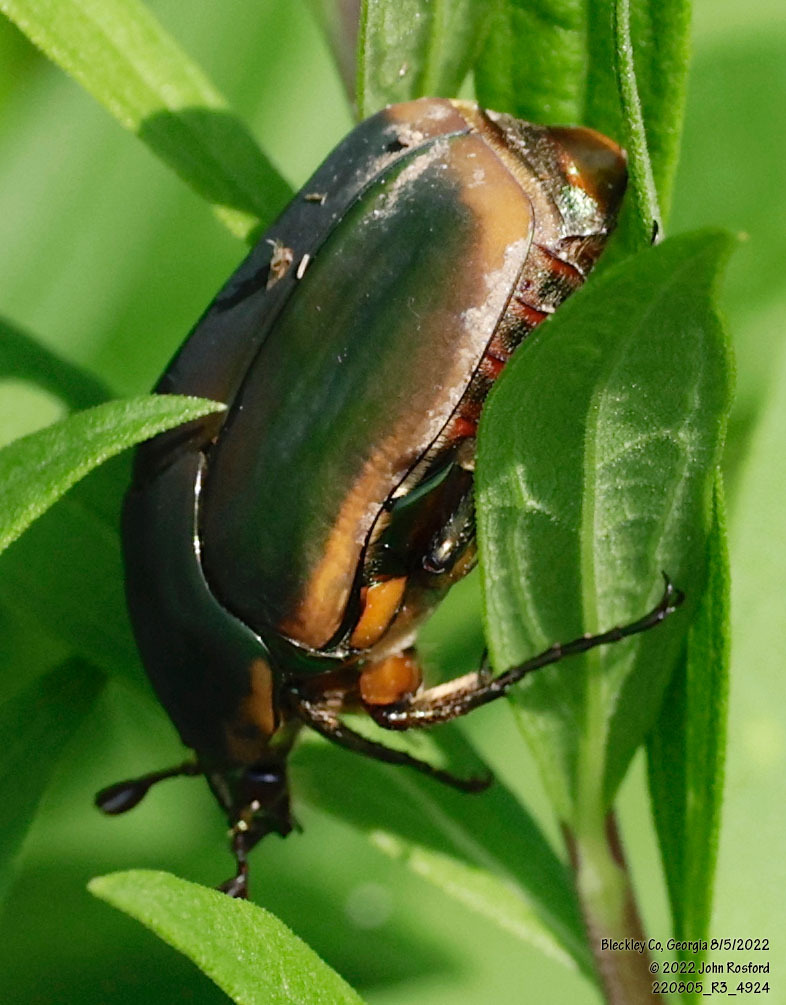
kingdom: Animalia
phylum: Arthropoda
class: Insecta
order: Coleoptera
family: Scarabaeidae
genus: Cotinis
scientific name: Cotinis nitida
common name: Common green june beetle
